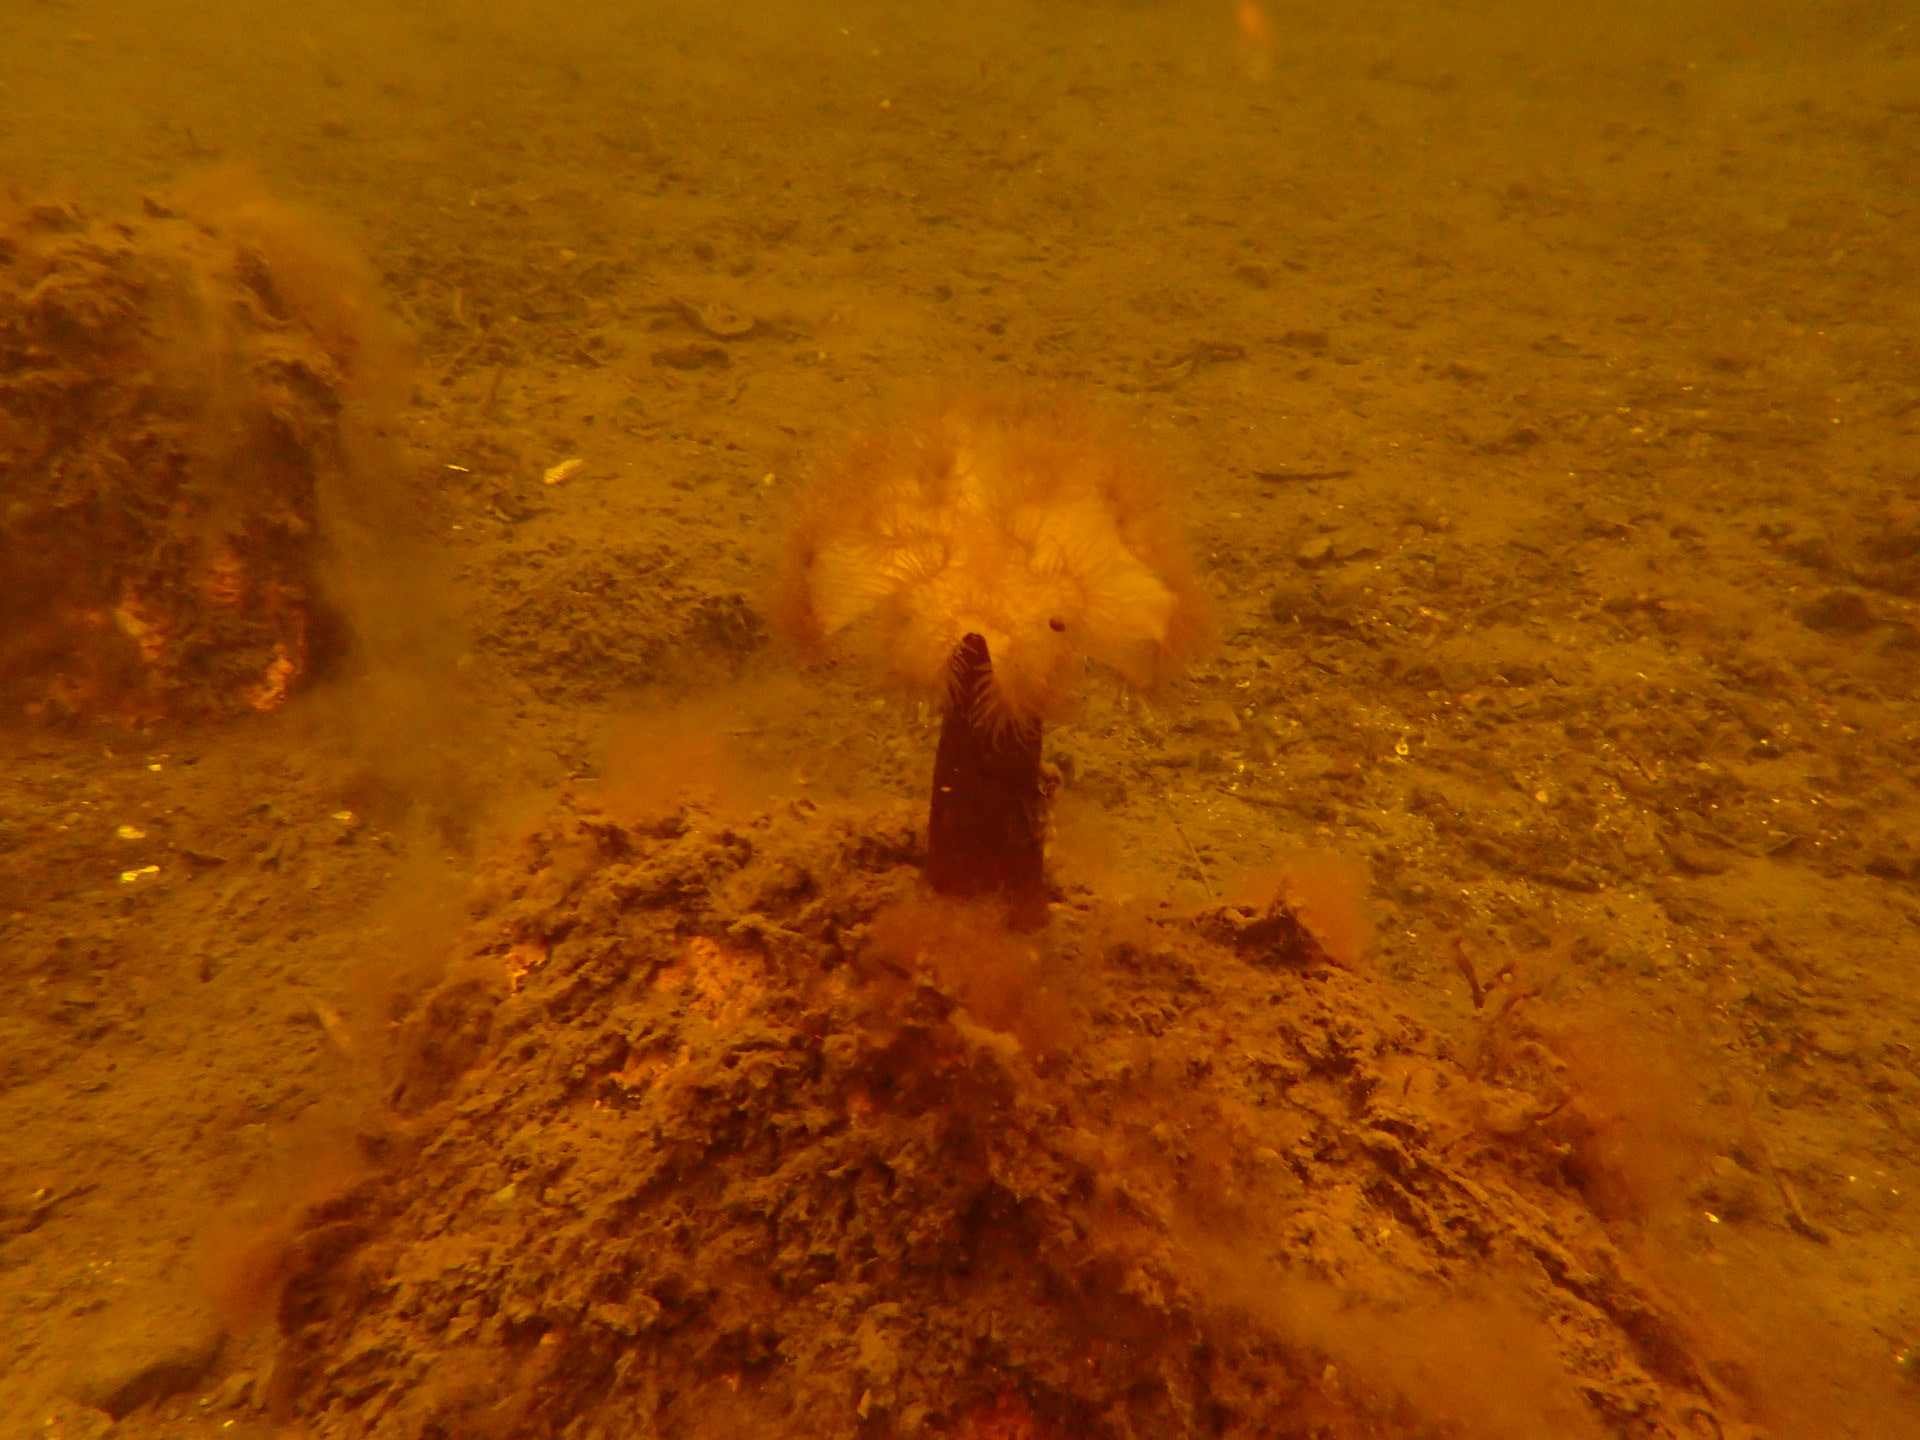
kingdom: Animalia
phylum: Cnidaria
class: Anthozoa
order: Actiniaria
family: Metridiidae
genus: Metridium
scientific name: Metridium senile
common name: Clonal plumose anemone
